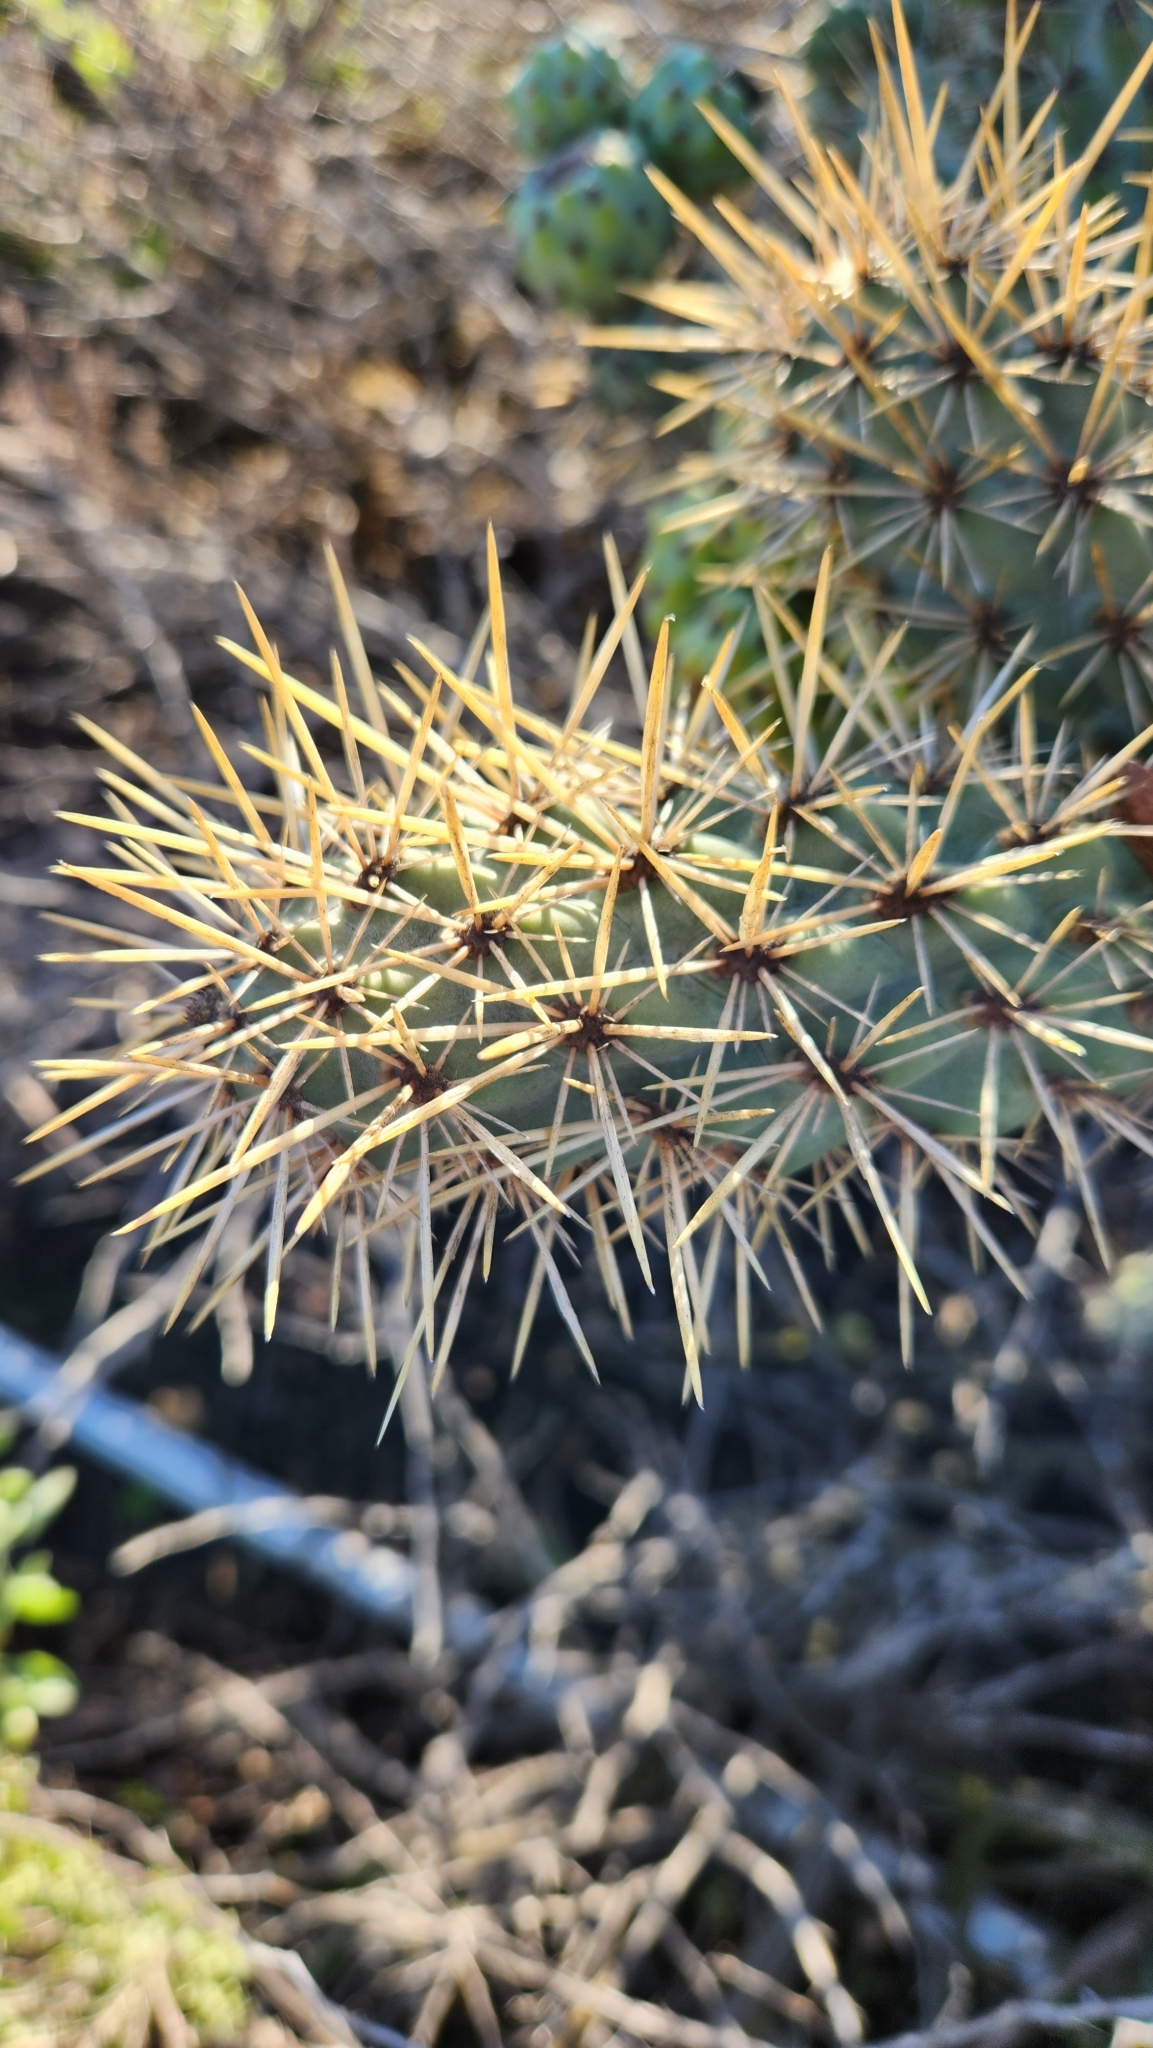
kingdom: Plantae
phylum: Tracheophyta
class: Magnoliopsida
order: Caryophyllales
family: Cactaceae
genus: Cylindropuntia
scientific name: Cylindropuntia prolifera
